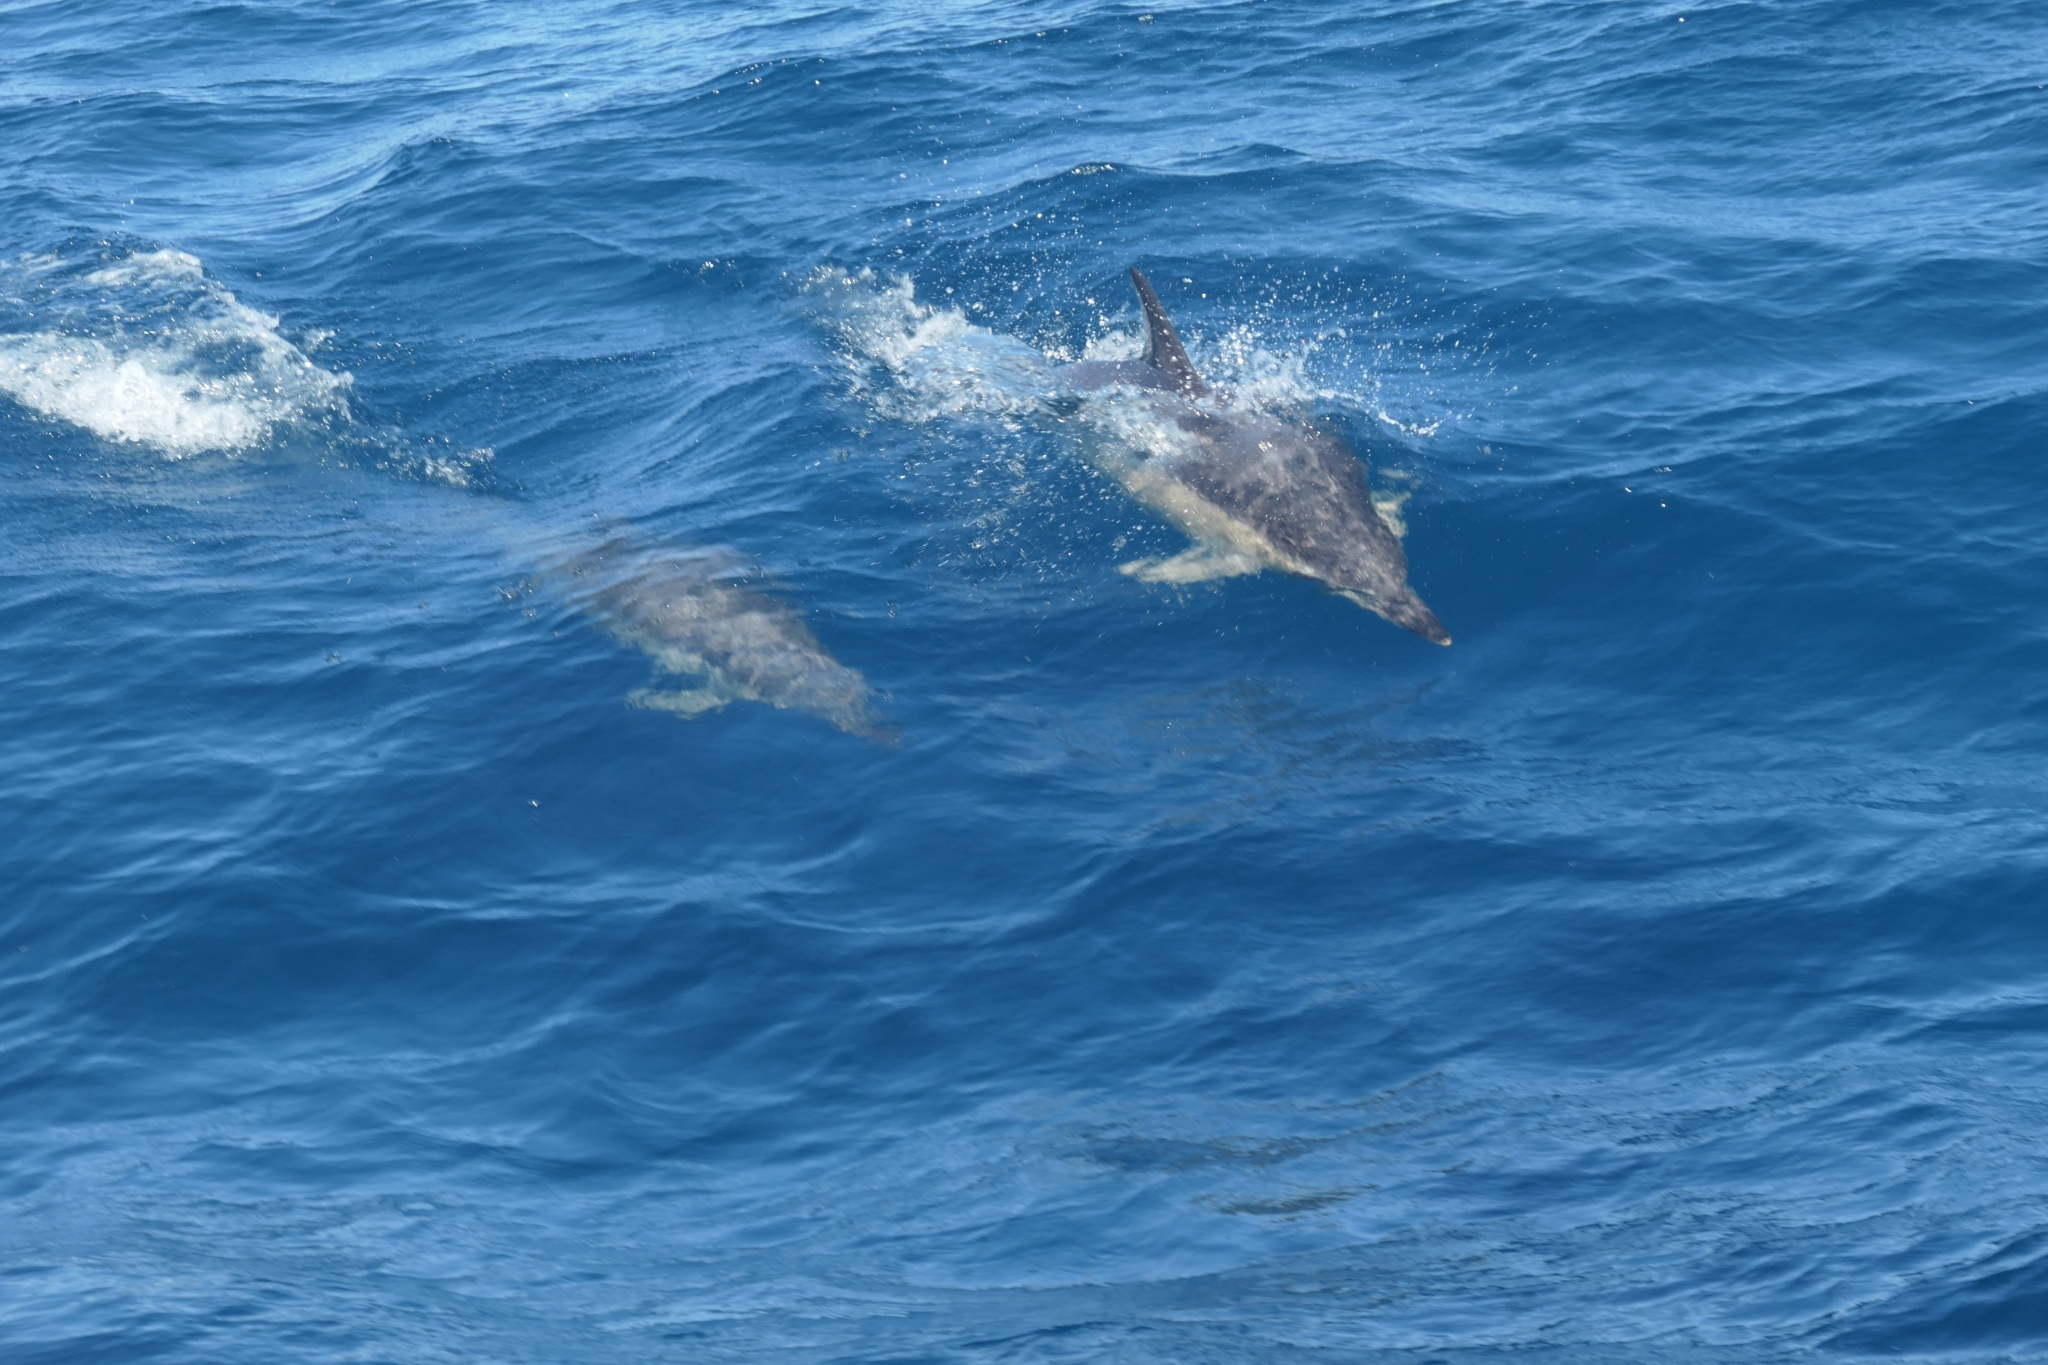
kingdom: Animalia
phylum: Chordata
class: Mammalia
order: Cetacea
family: Delphinidae
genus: Delphinus
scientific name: Delphinus delphis
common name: Common dolphin
